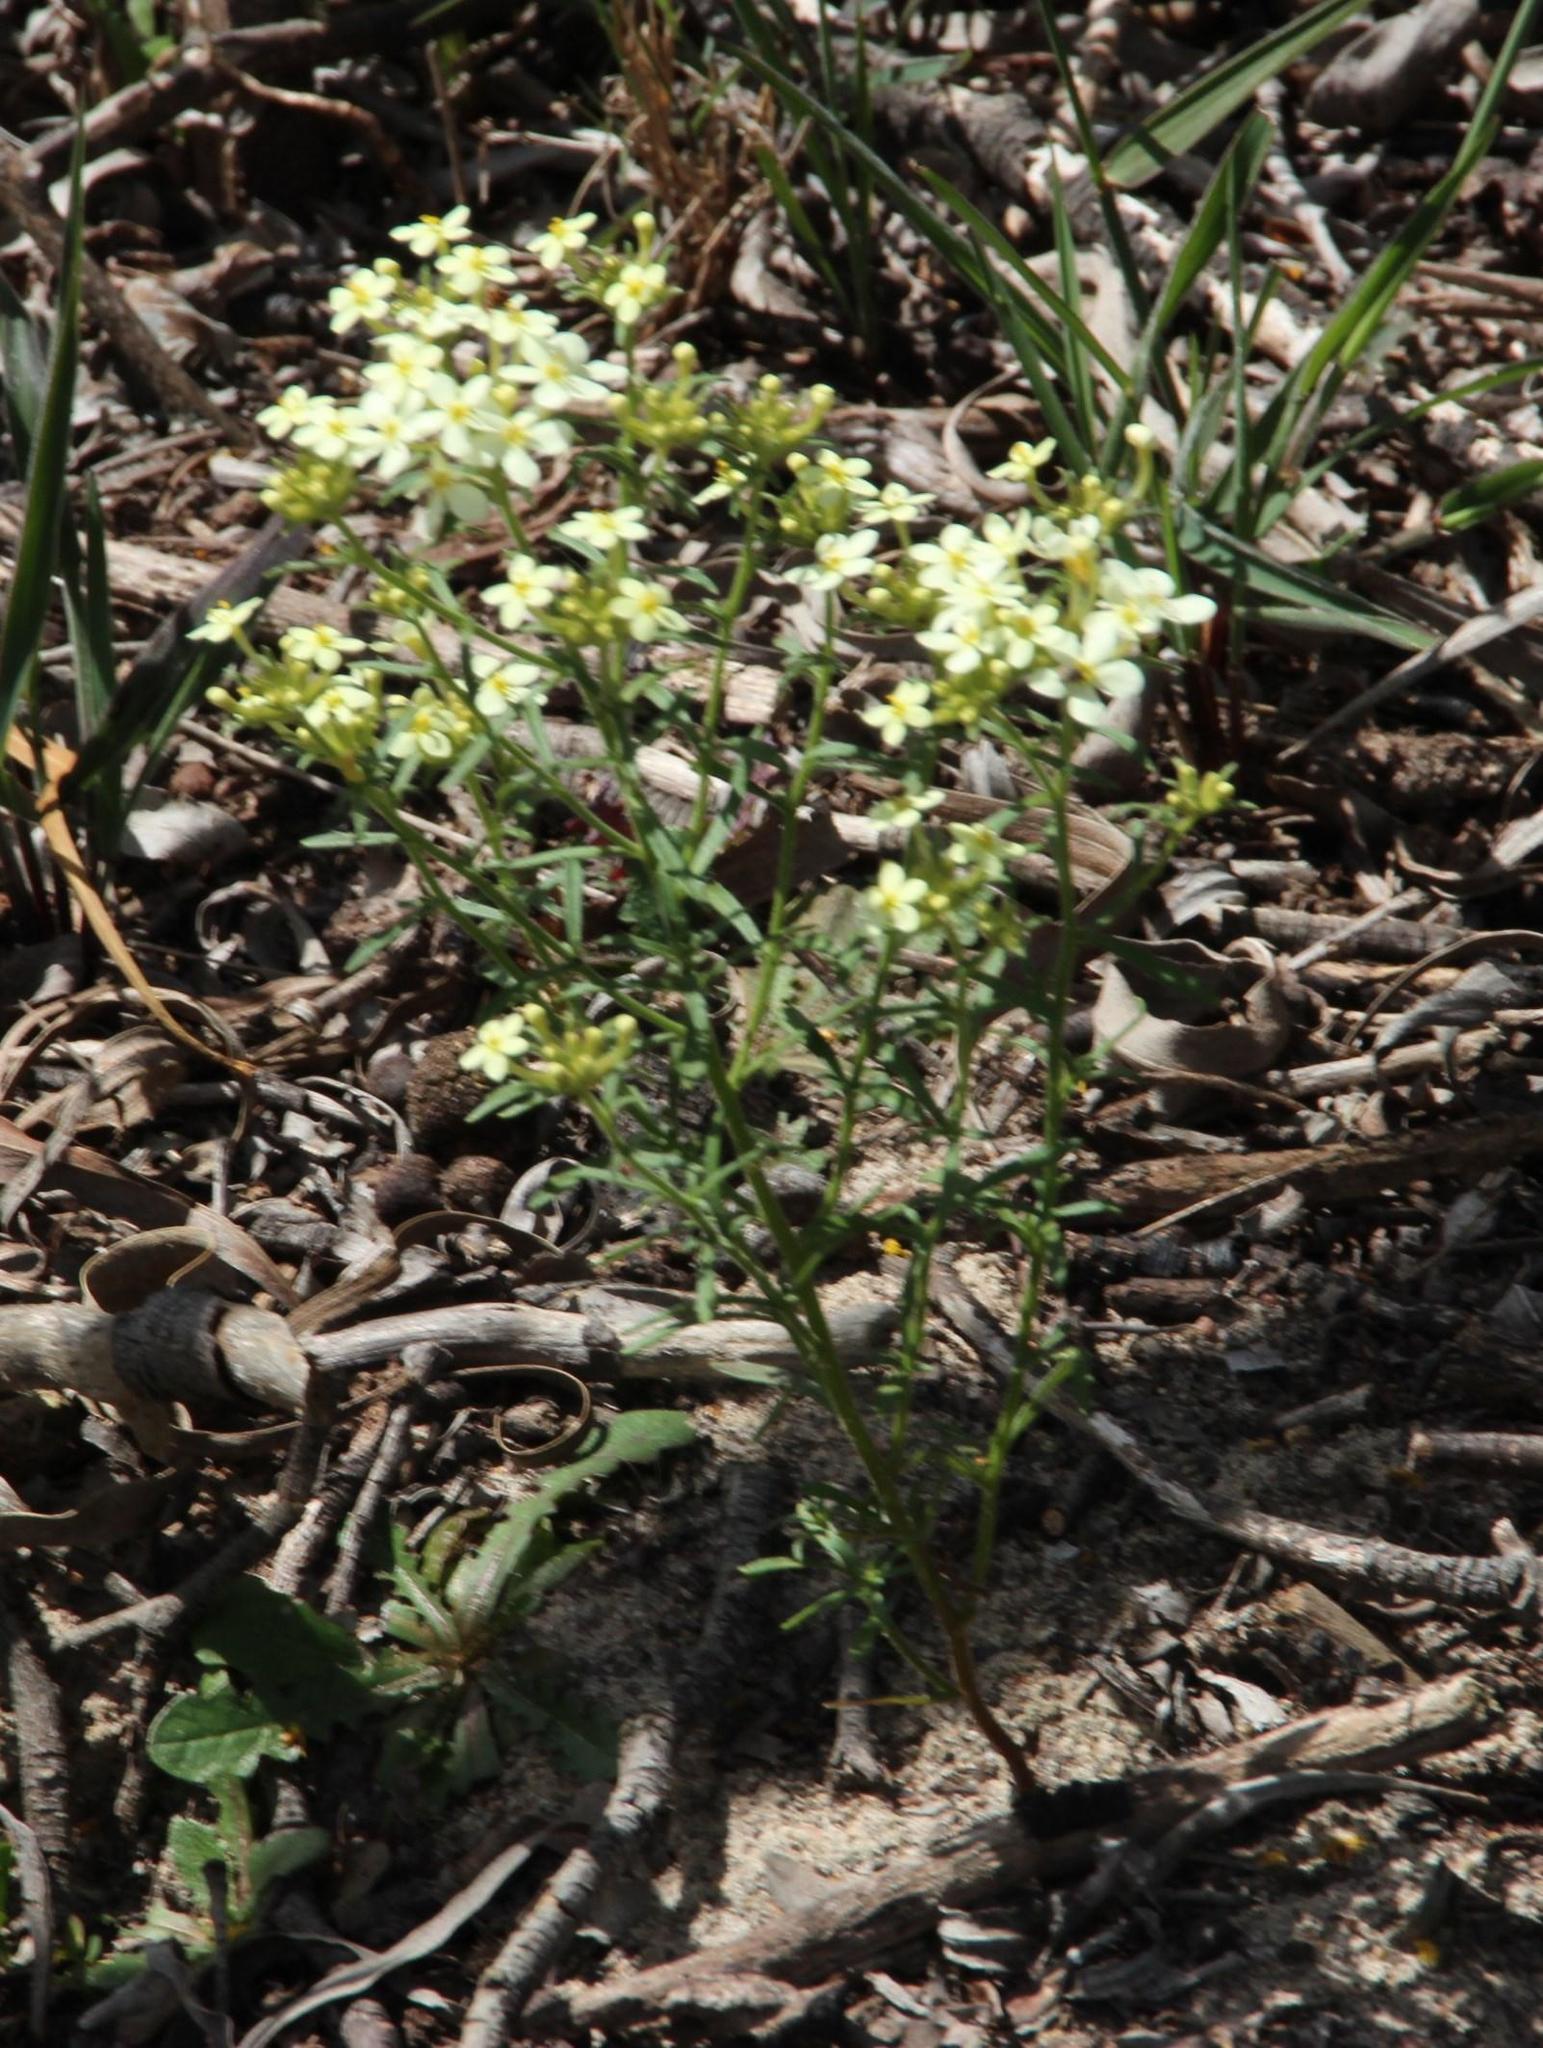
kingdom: Plantae
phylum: Tracheophyta
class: Magnoliopsida
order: Lamiales
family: Scrophulariaceae
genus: Polycarena
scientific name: Polycarena capensis
